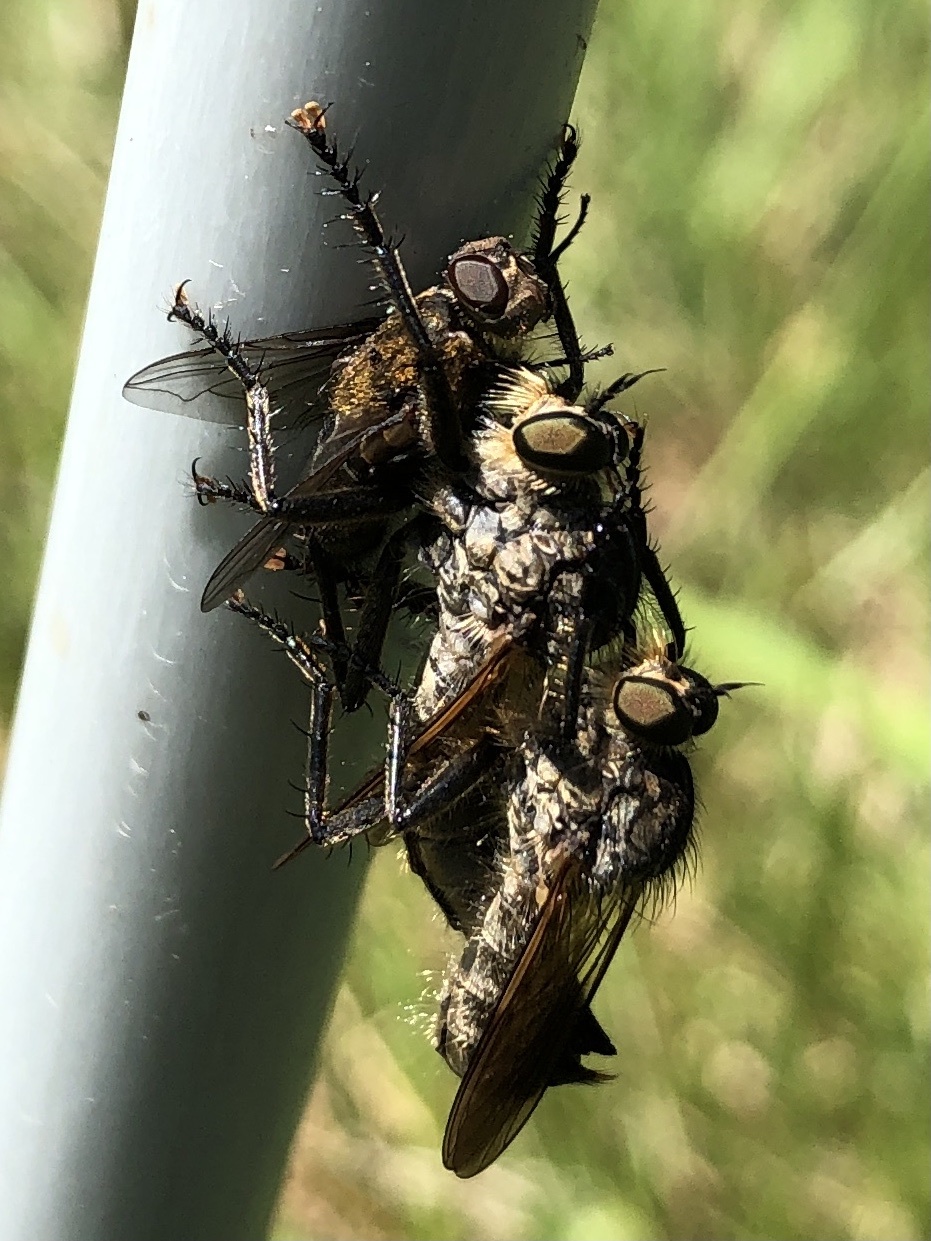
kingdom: Animalia
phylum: Arthropoda
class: Insecta
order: Diptera
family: Asilidae
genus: Eutolmus
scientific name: Eutolmus rufibarbis
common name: Golden-tabbed robberfly
